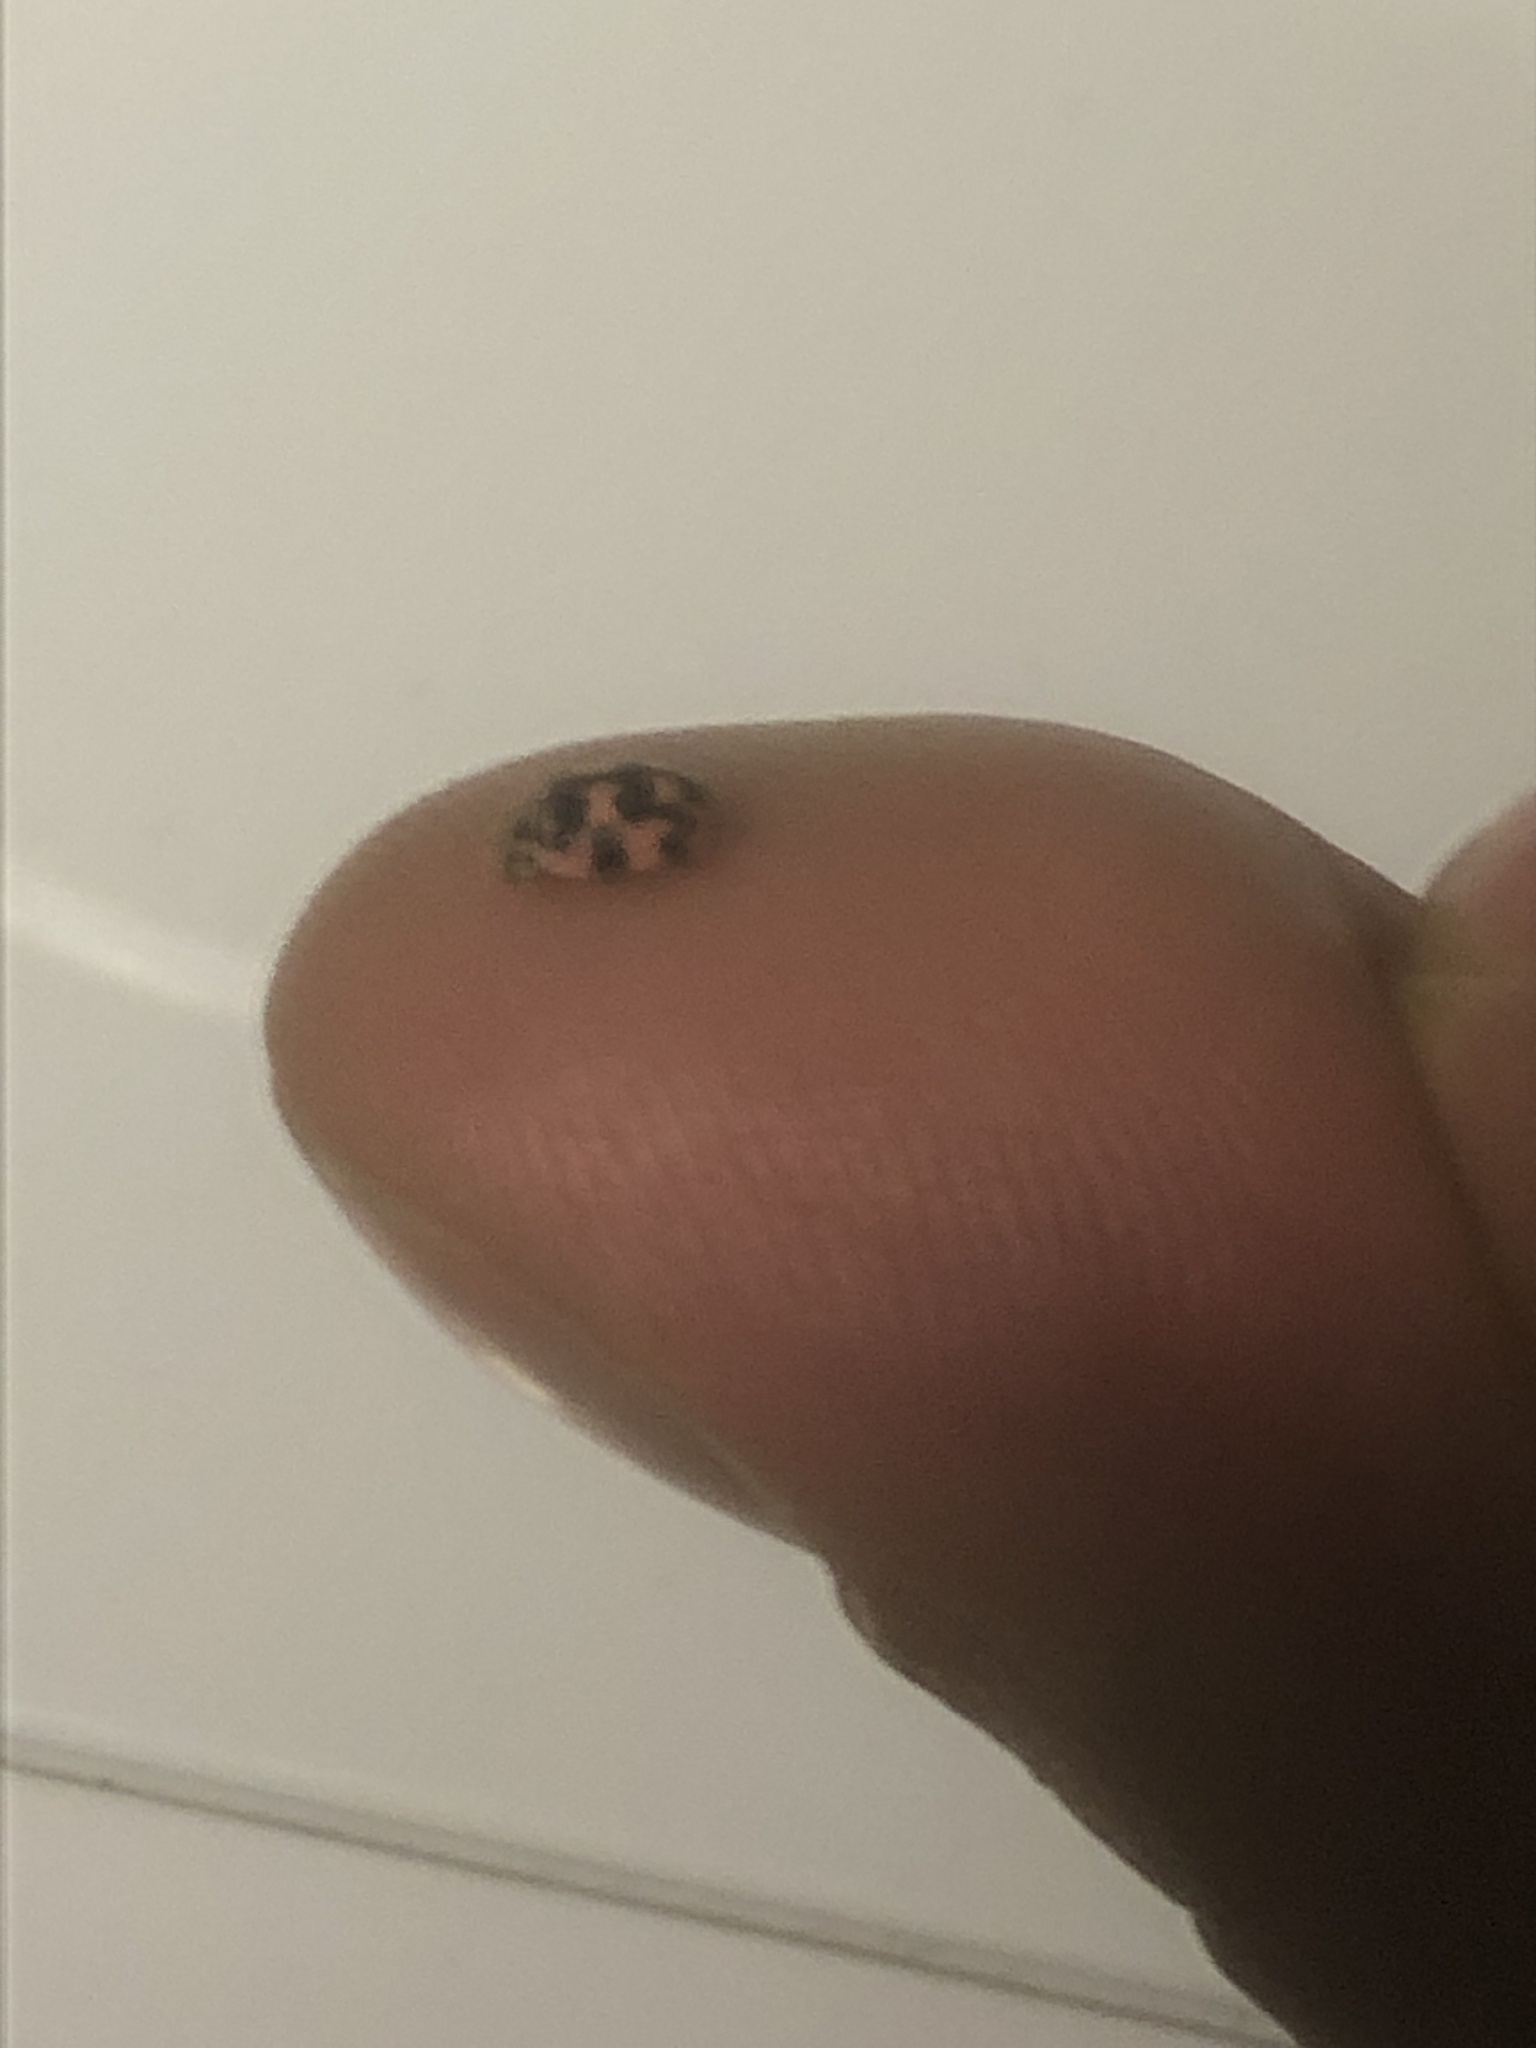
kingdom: Animalia
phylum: Arthropoda
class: Insecta
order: Coleoptera
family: Coccinellidae
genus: Oenopia
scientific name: Oenopia conglobata
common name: Ladybird beetle
